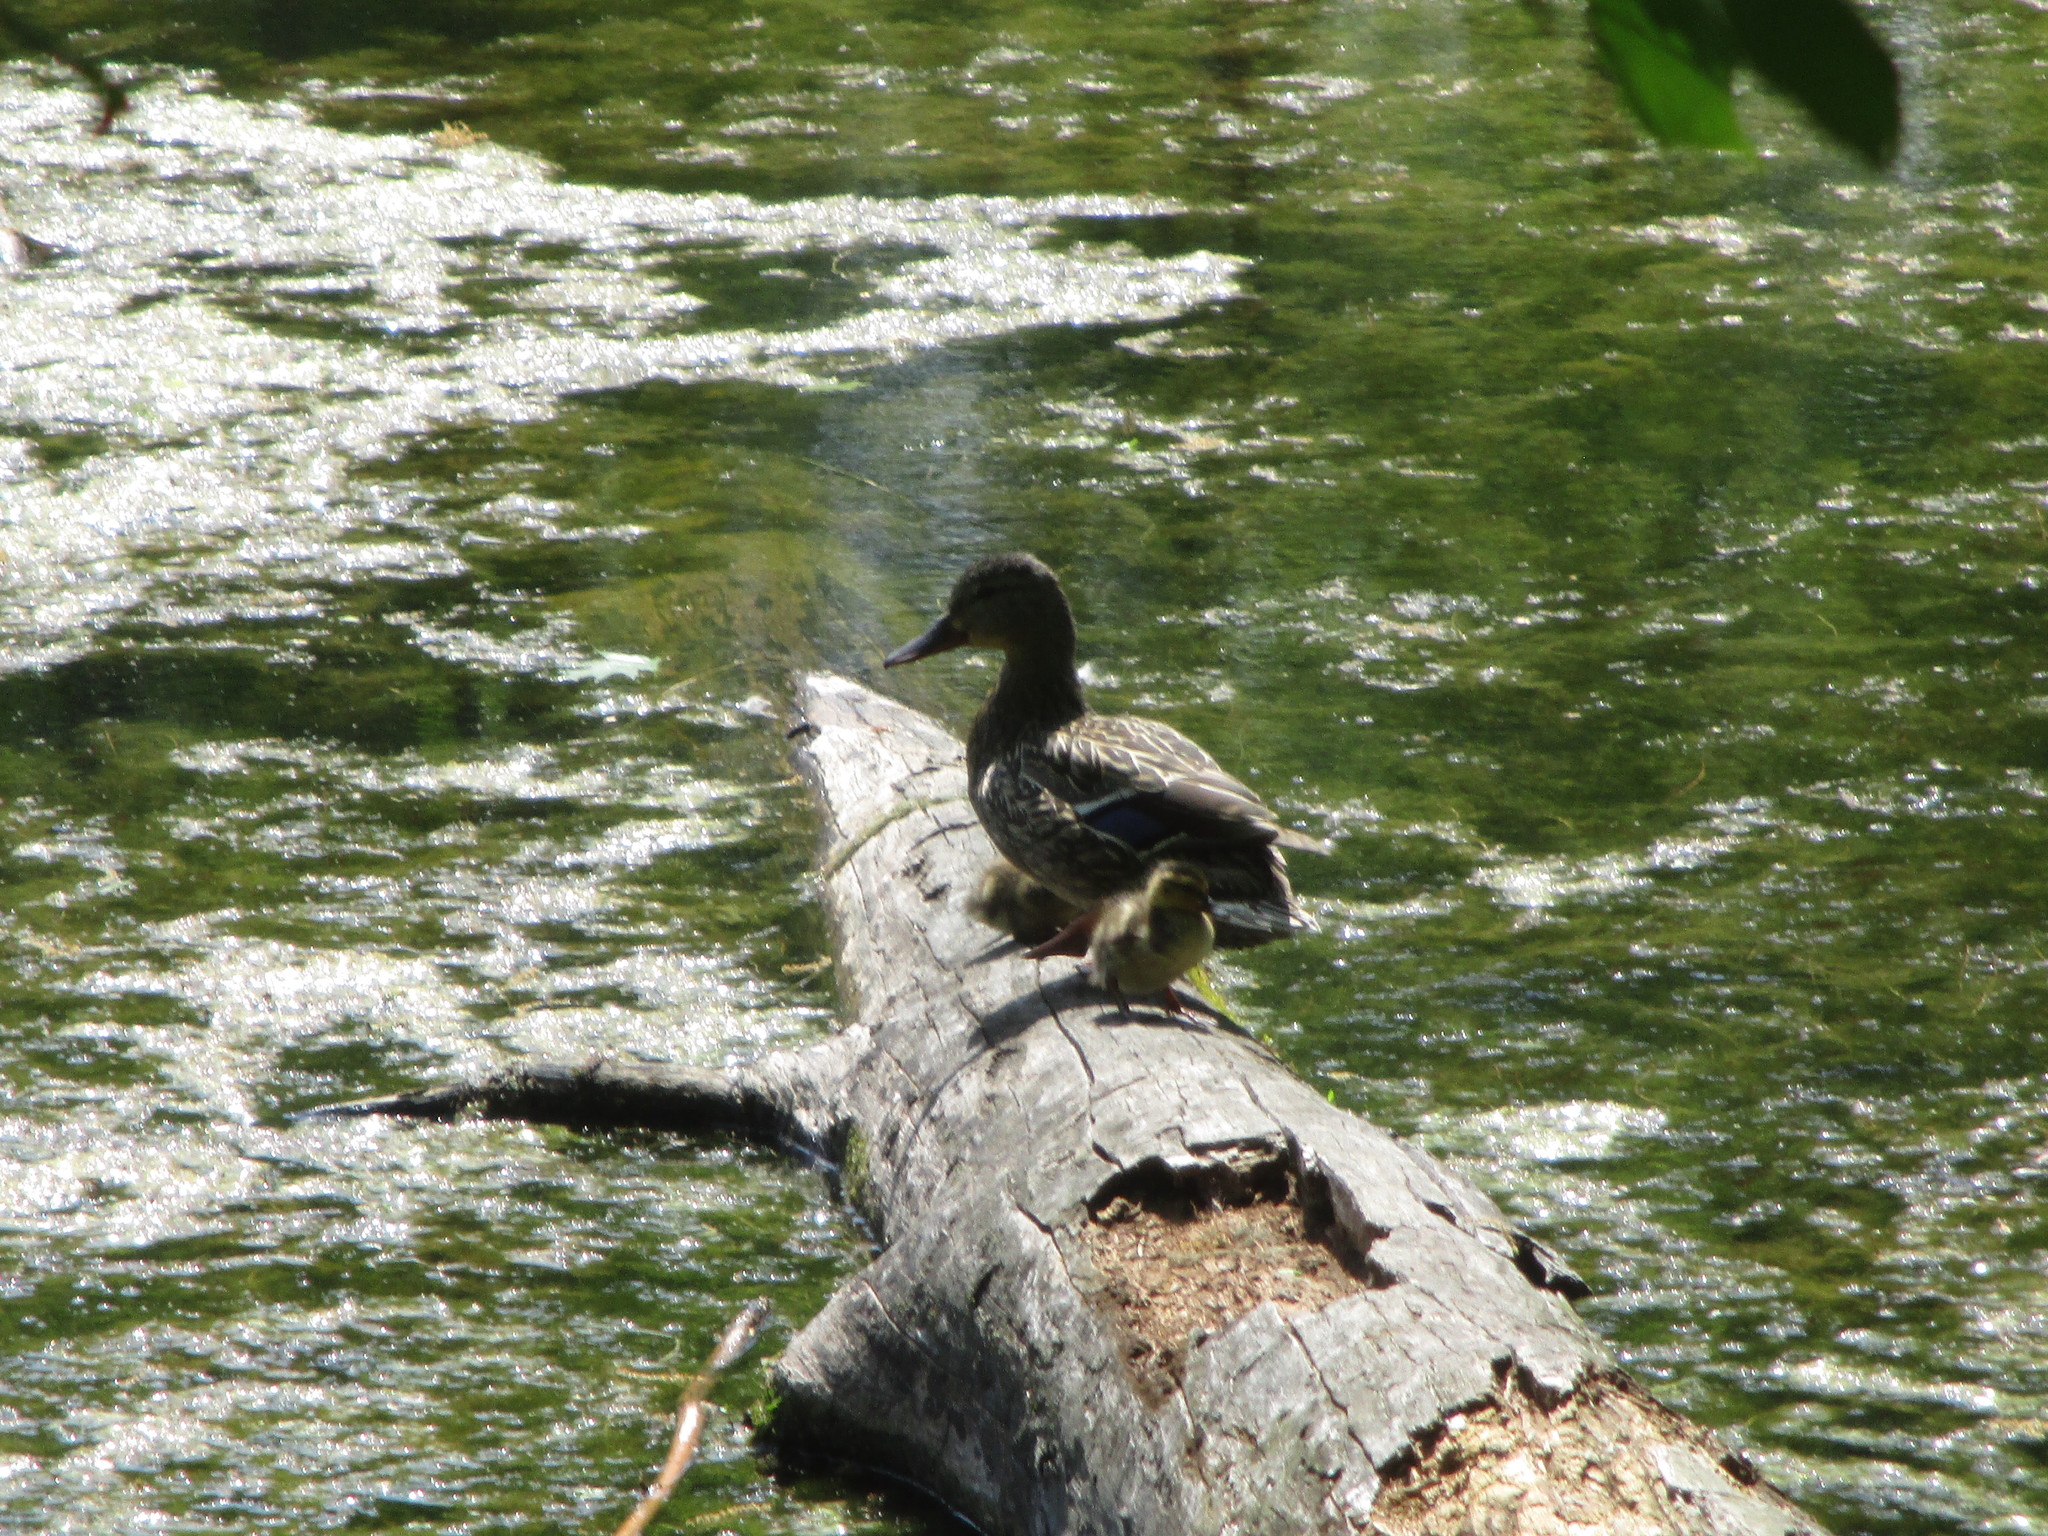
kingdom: Animalia
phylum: Chordata
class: Aves
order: Anseriformes
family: Anatidae
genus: Anas
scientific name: Anas platyrhynchos
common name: Mallard
